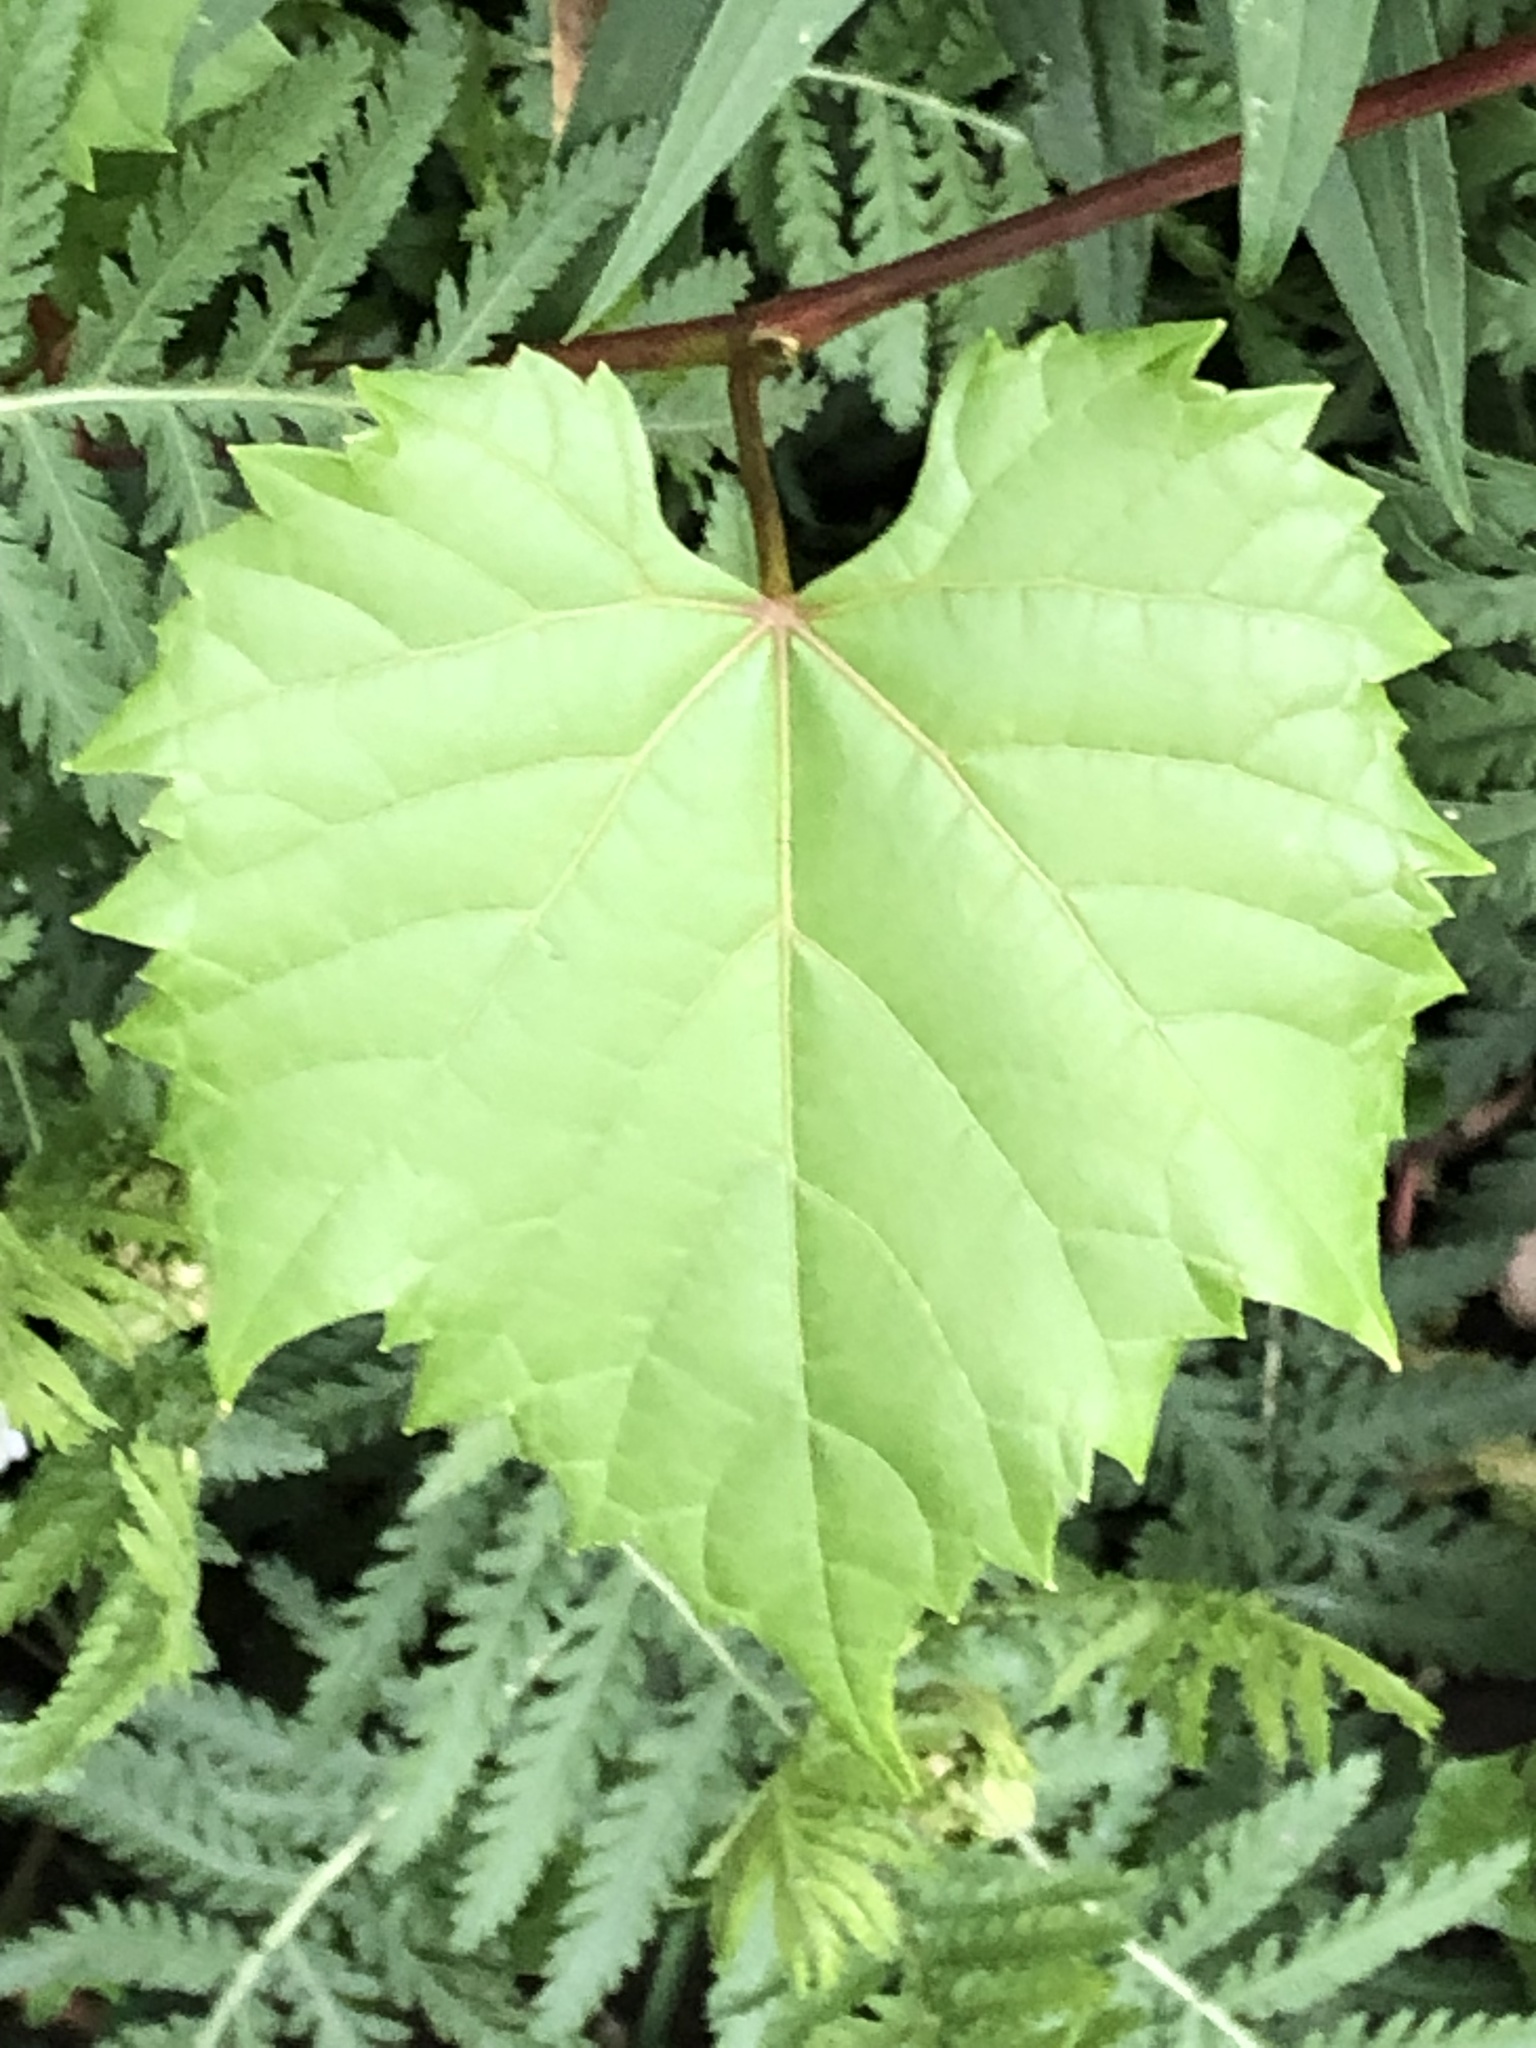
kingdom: Plantae
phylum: Tracheophyta
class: Magnoliopsida
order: Vitales
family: Vitaceae
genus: Vitis
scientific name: Vitis riparia
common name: Frost grape
